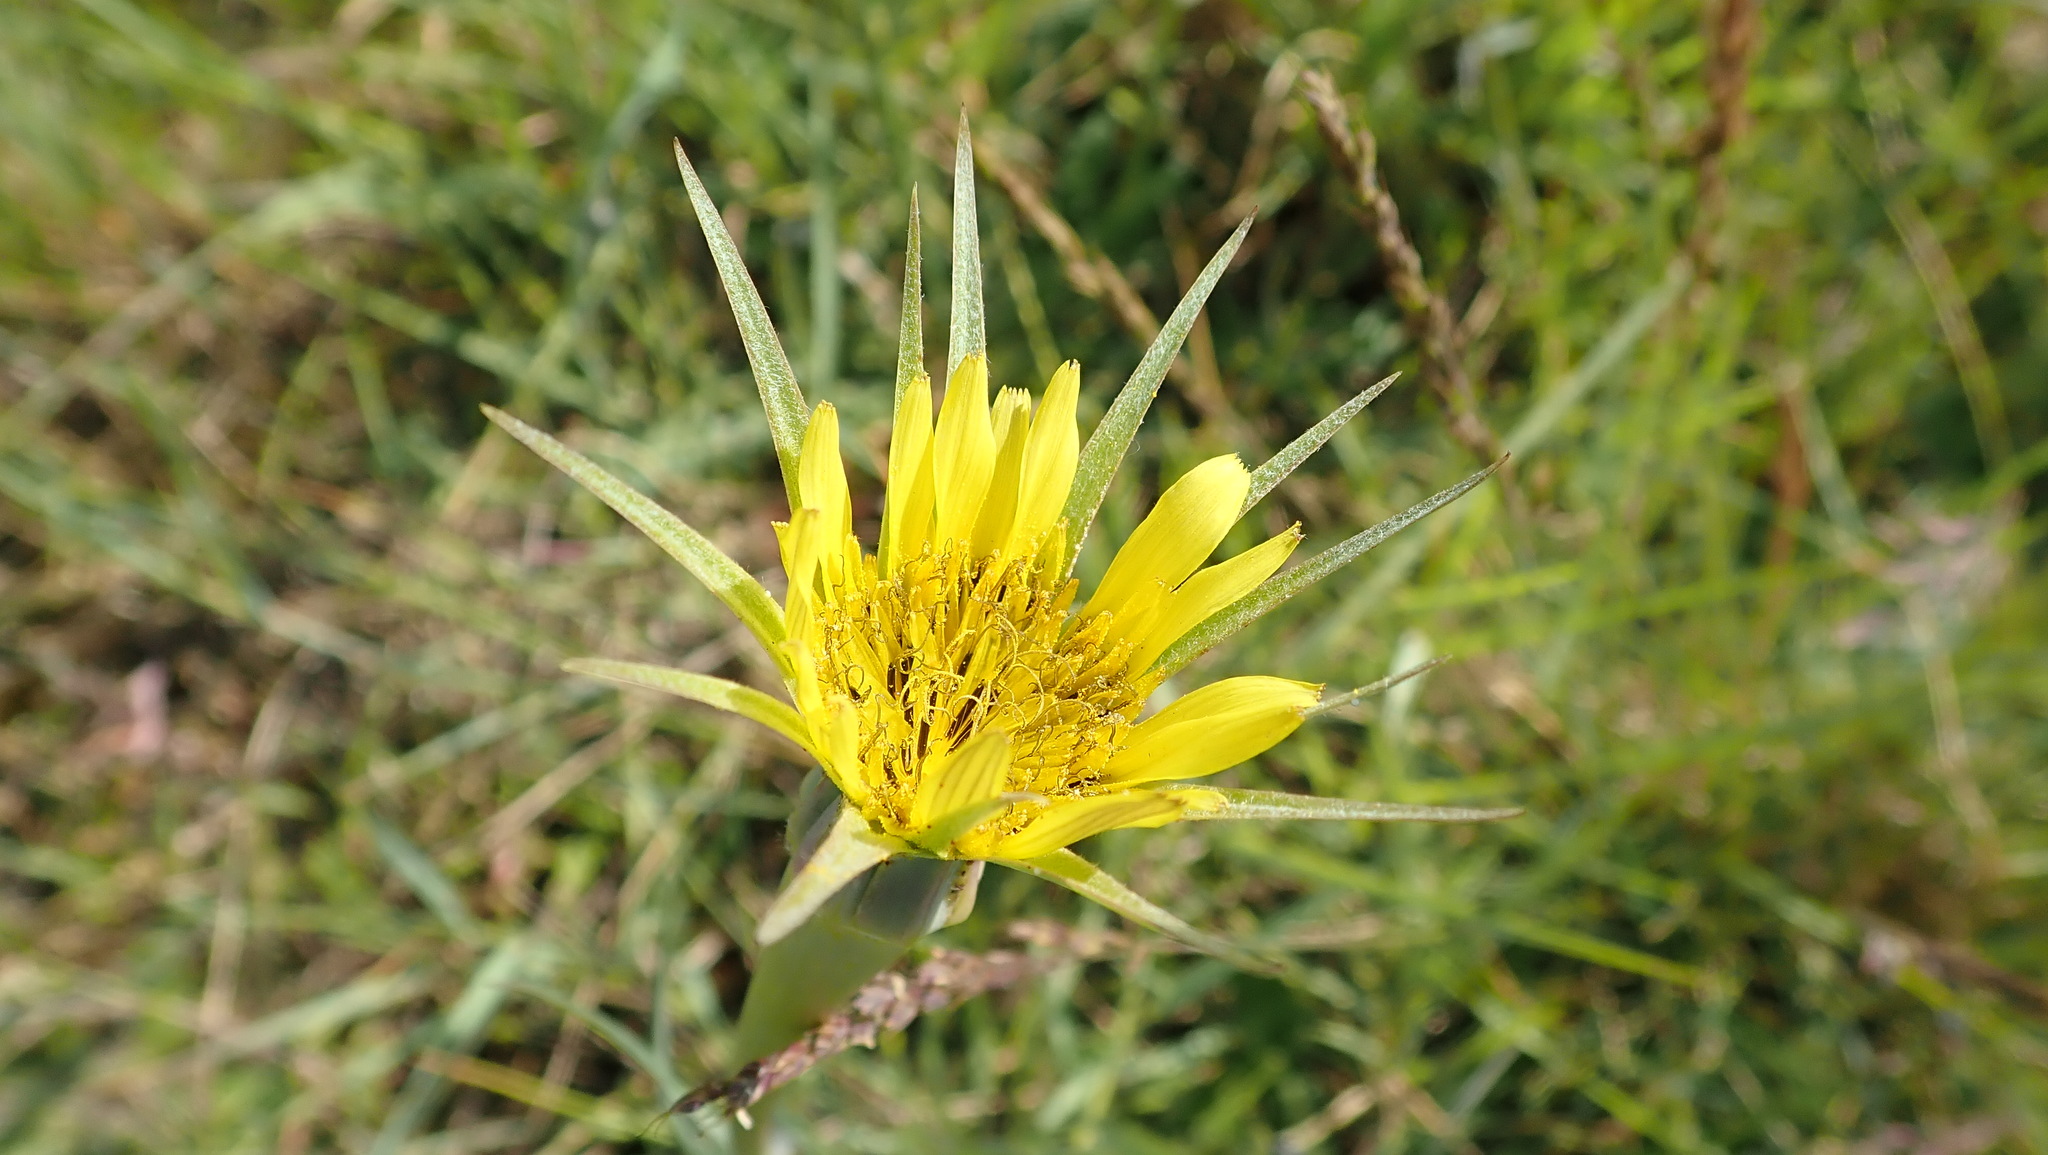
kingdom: Plantae
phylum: Tracheophyta
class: Magnoliopsida
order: Asterales
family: Asteraceae
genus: Tragopogon
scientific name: Tragopogon pratensis
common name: Goat's-beard
